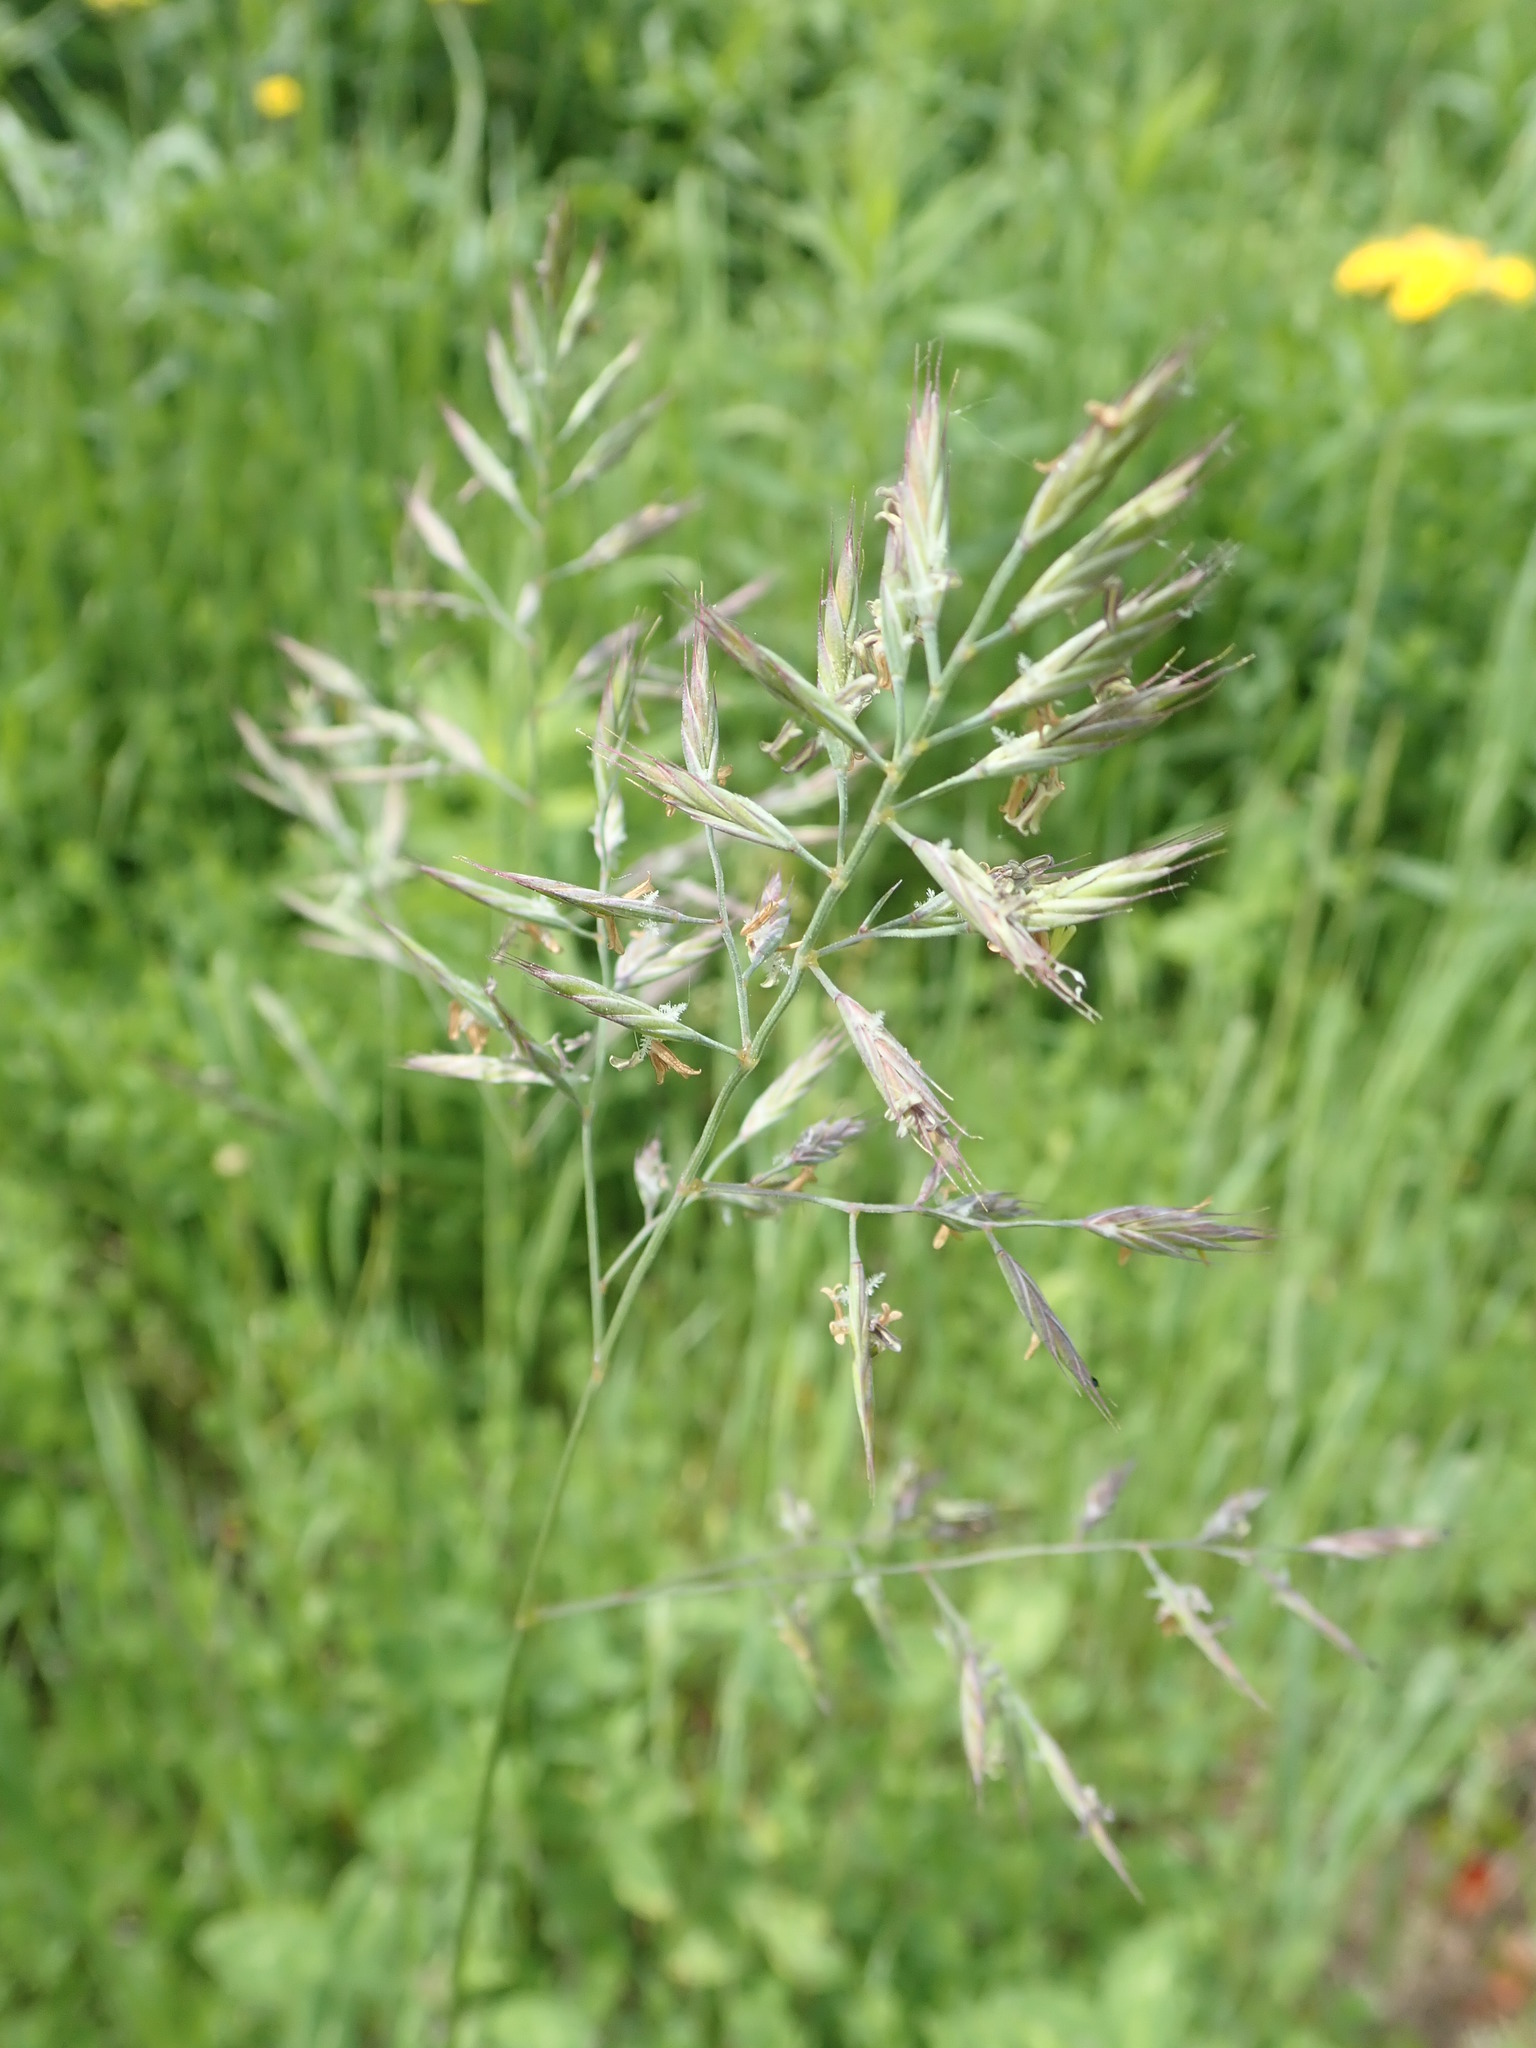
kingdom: Plantae
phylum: Tracheophyta
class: Liliopsida
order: Poales
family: Poaceae
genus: Bromus
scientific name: Bromus inermis
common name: Smooth brome
